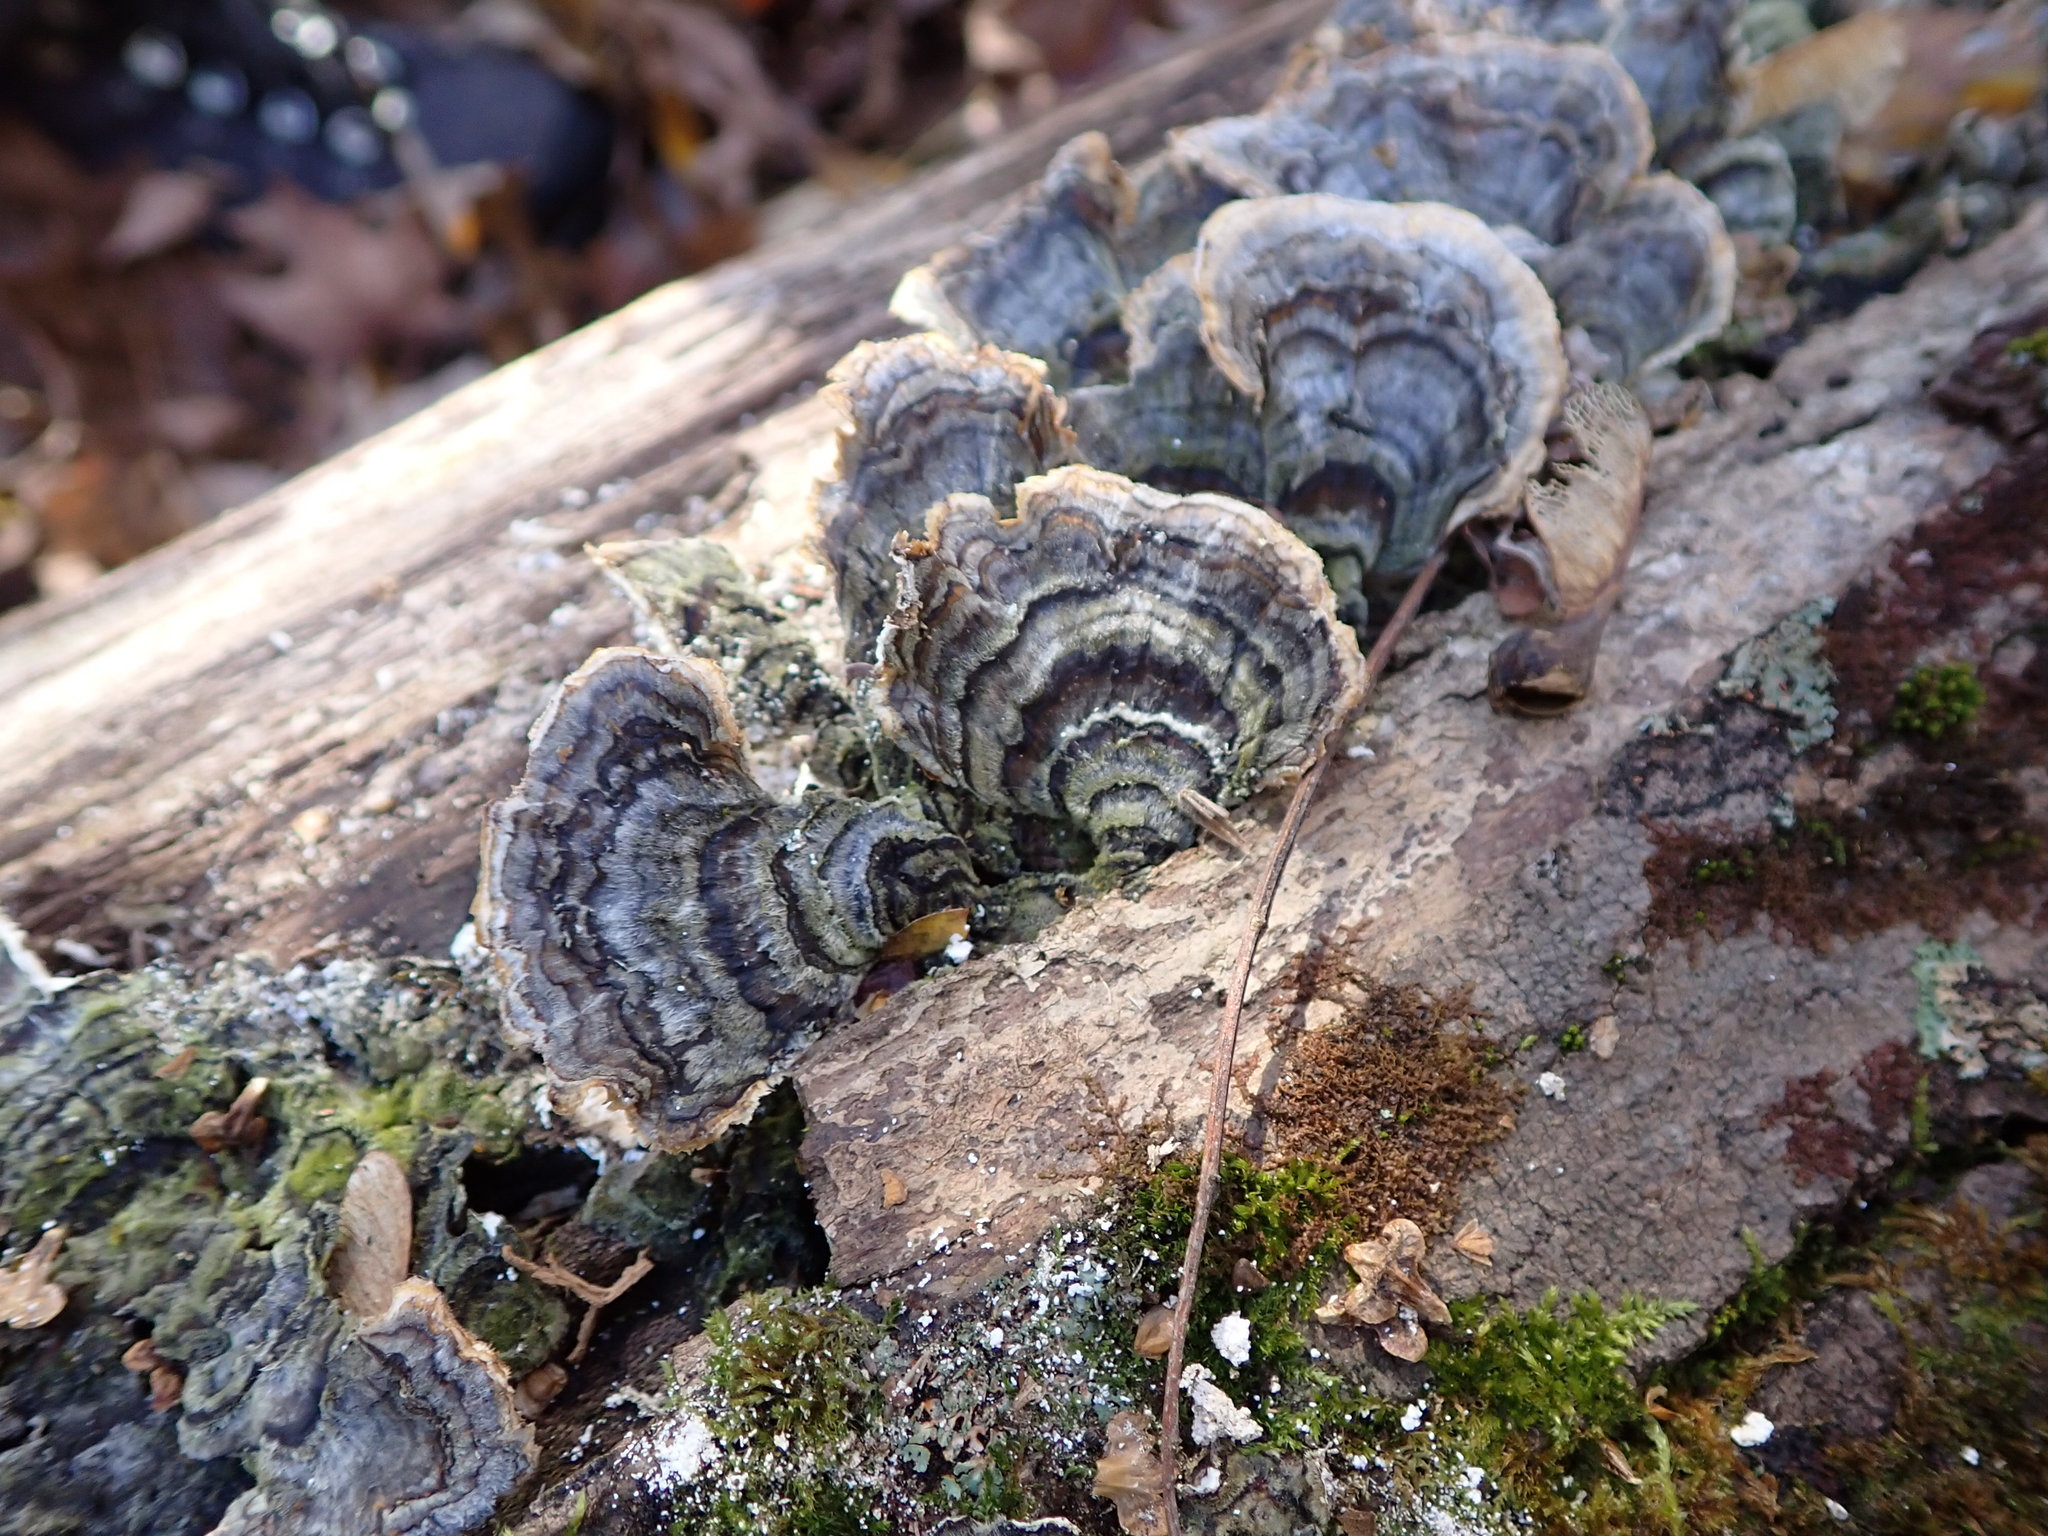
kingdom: Fungi
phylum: Basidiomycota
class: Agaricomycetes
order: Polyporales
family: Polyporaceae
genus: Trametes
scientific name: Trametes versicolor
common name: Turkeytail
